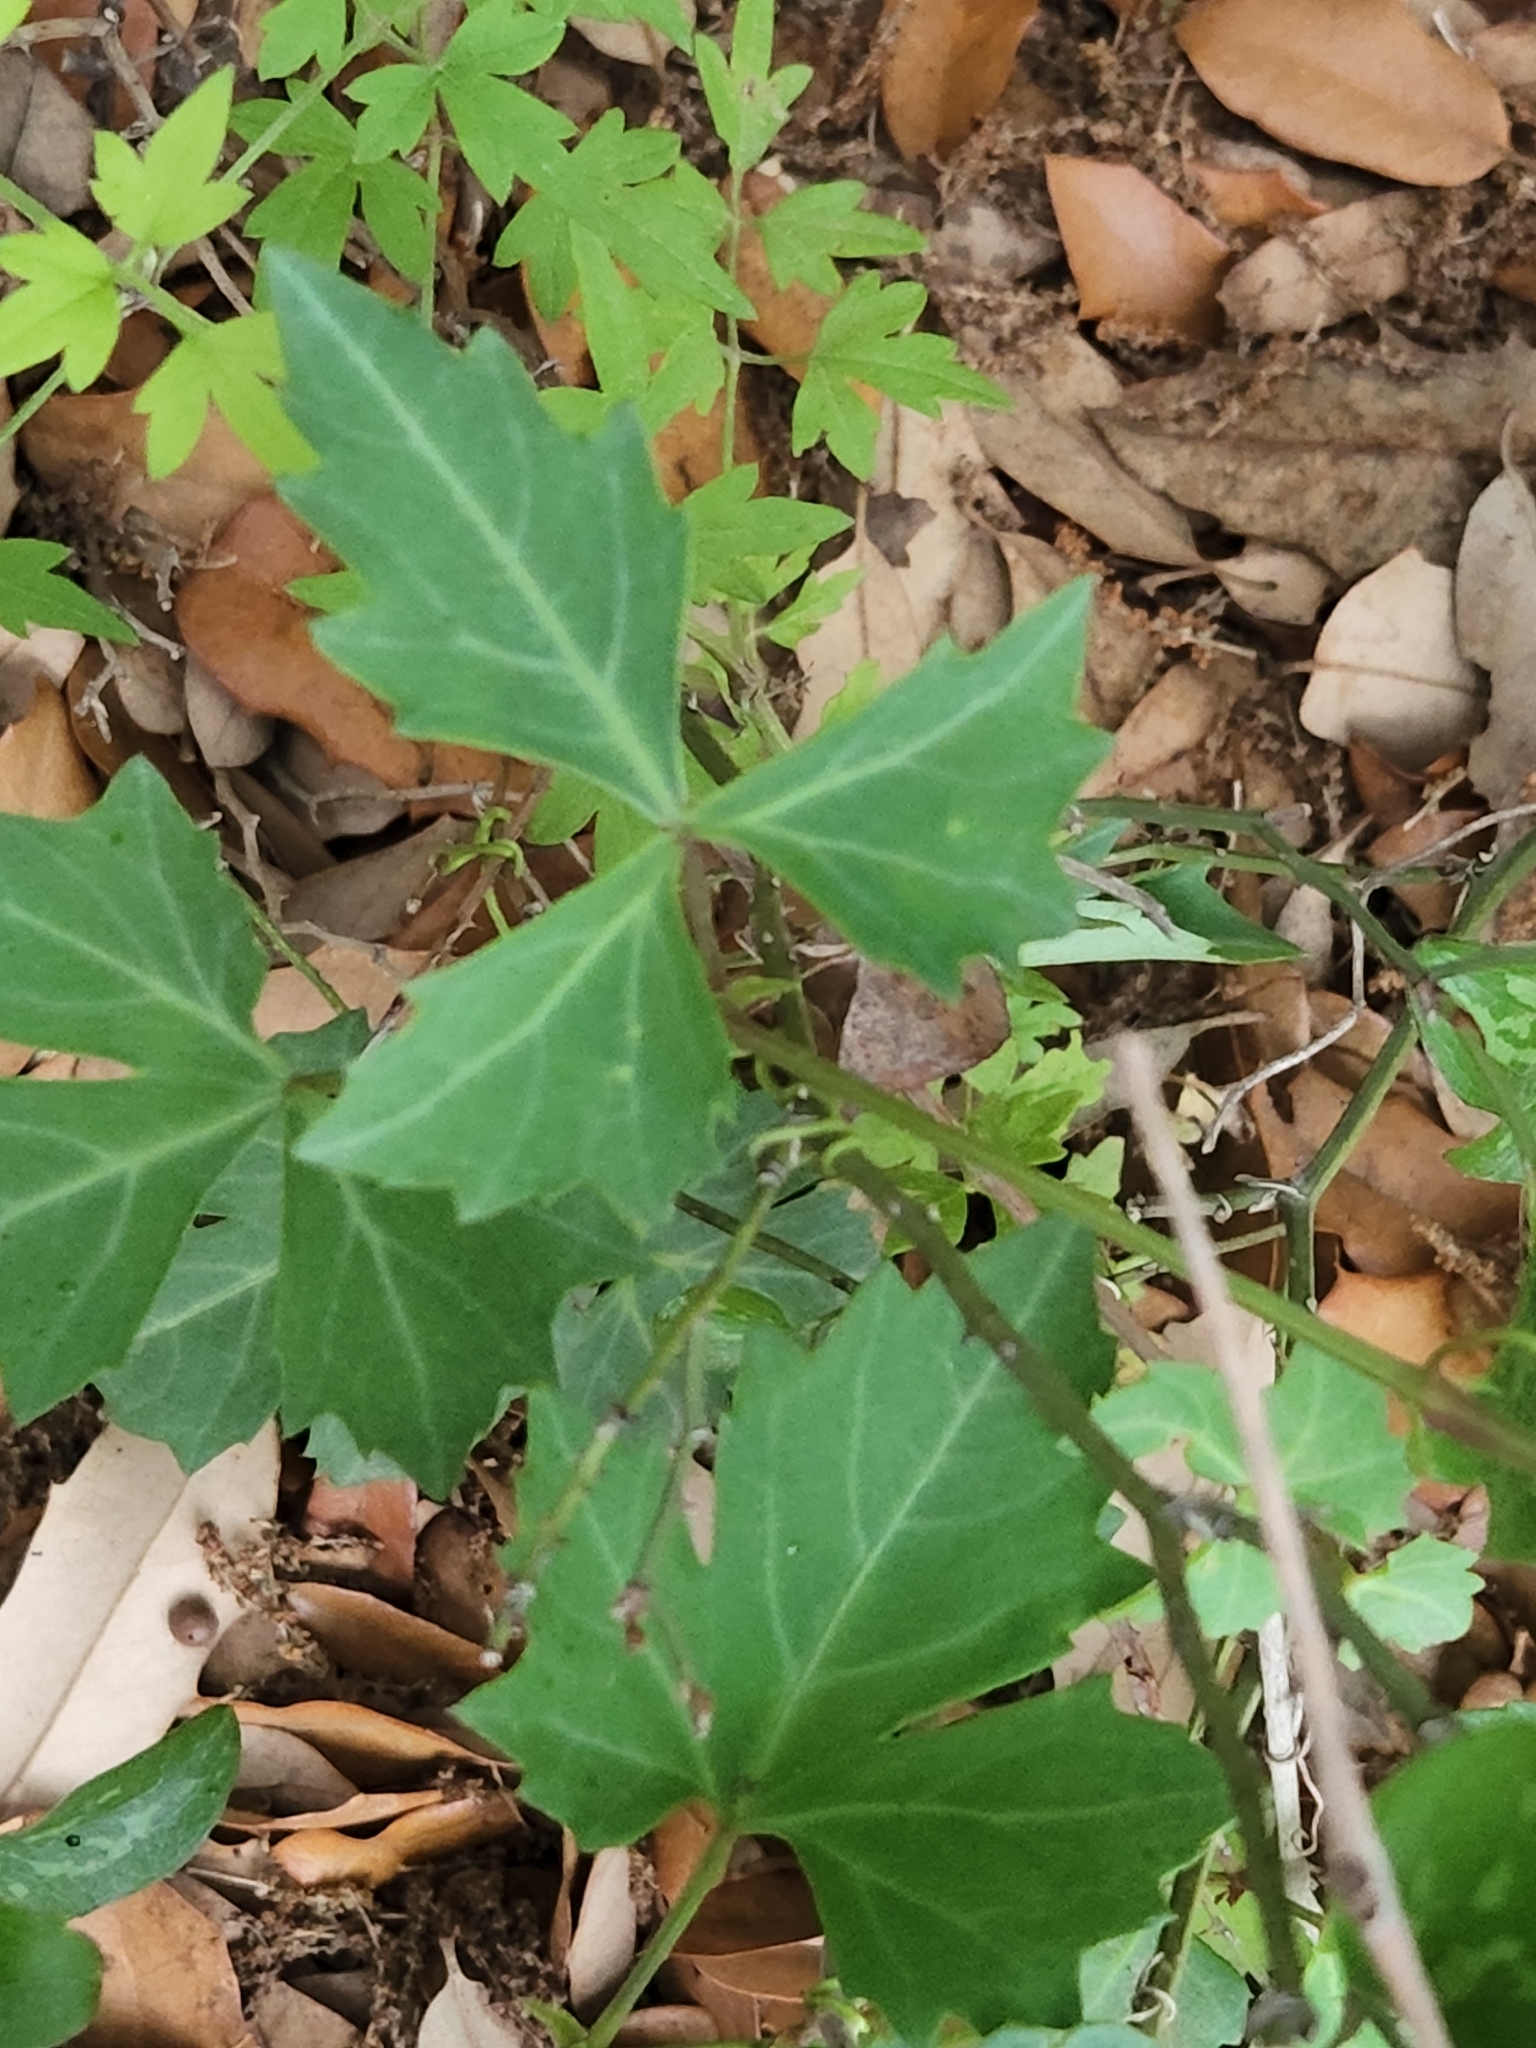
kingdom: Plantae
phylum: Tracheophyta
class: Magnoliopsida
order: Vitales
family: Vitaceae
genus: Cissus
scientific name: Cissus trifoliata
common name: Vine-sorrel
